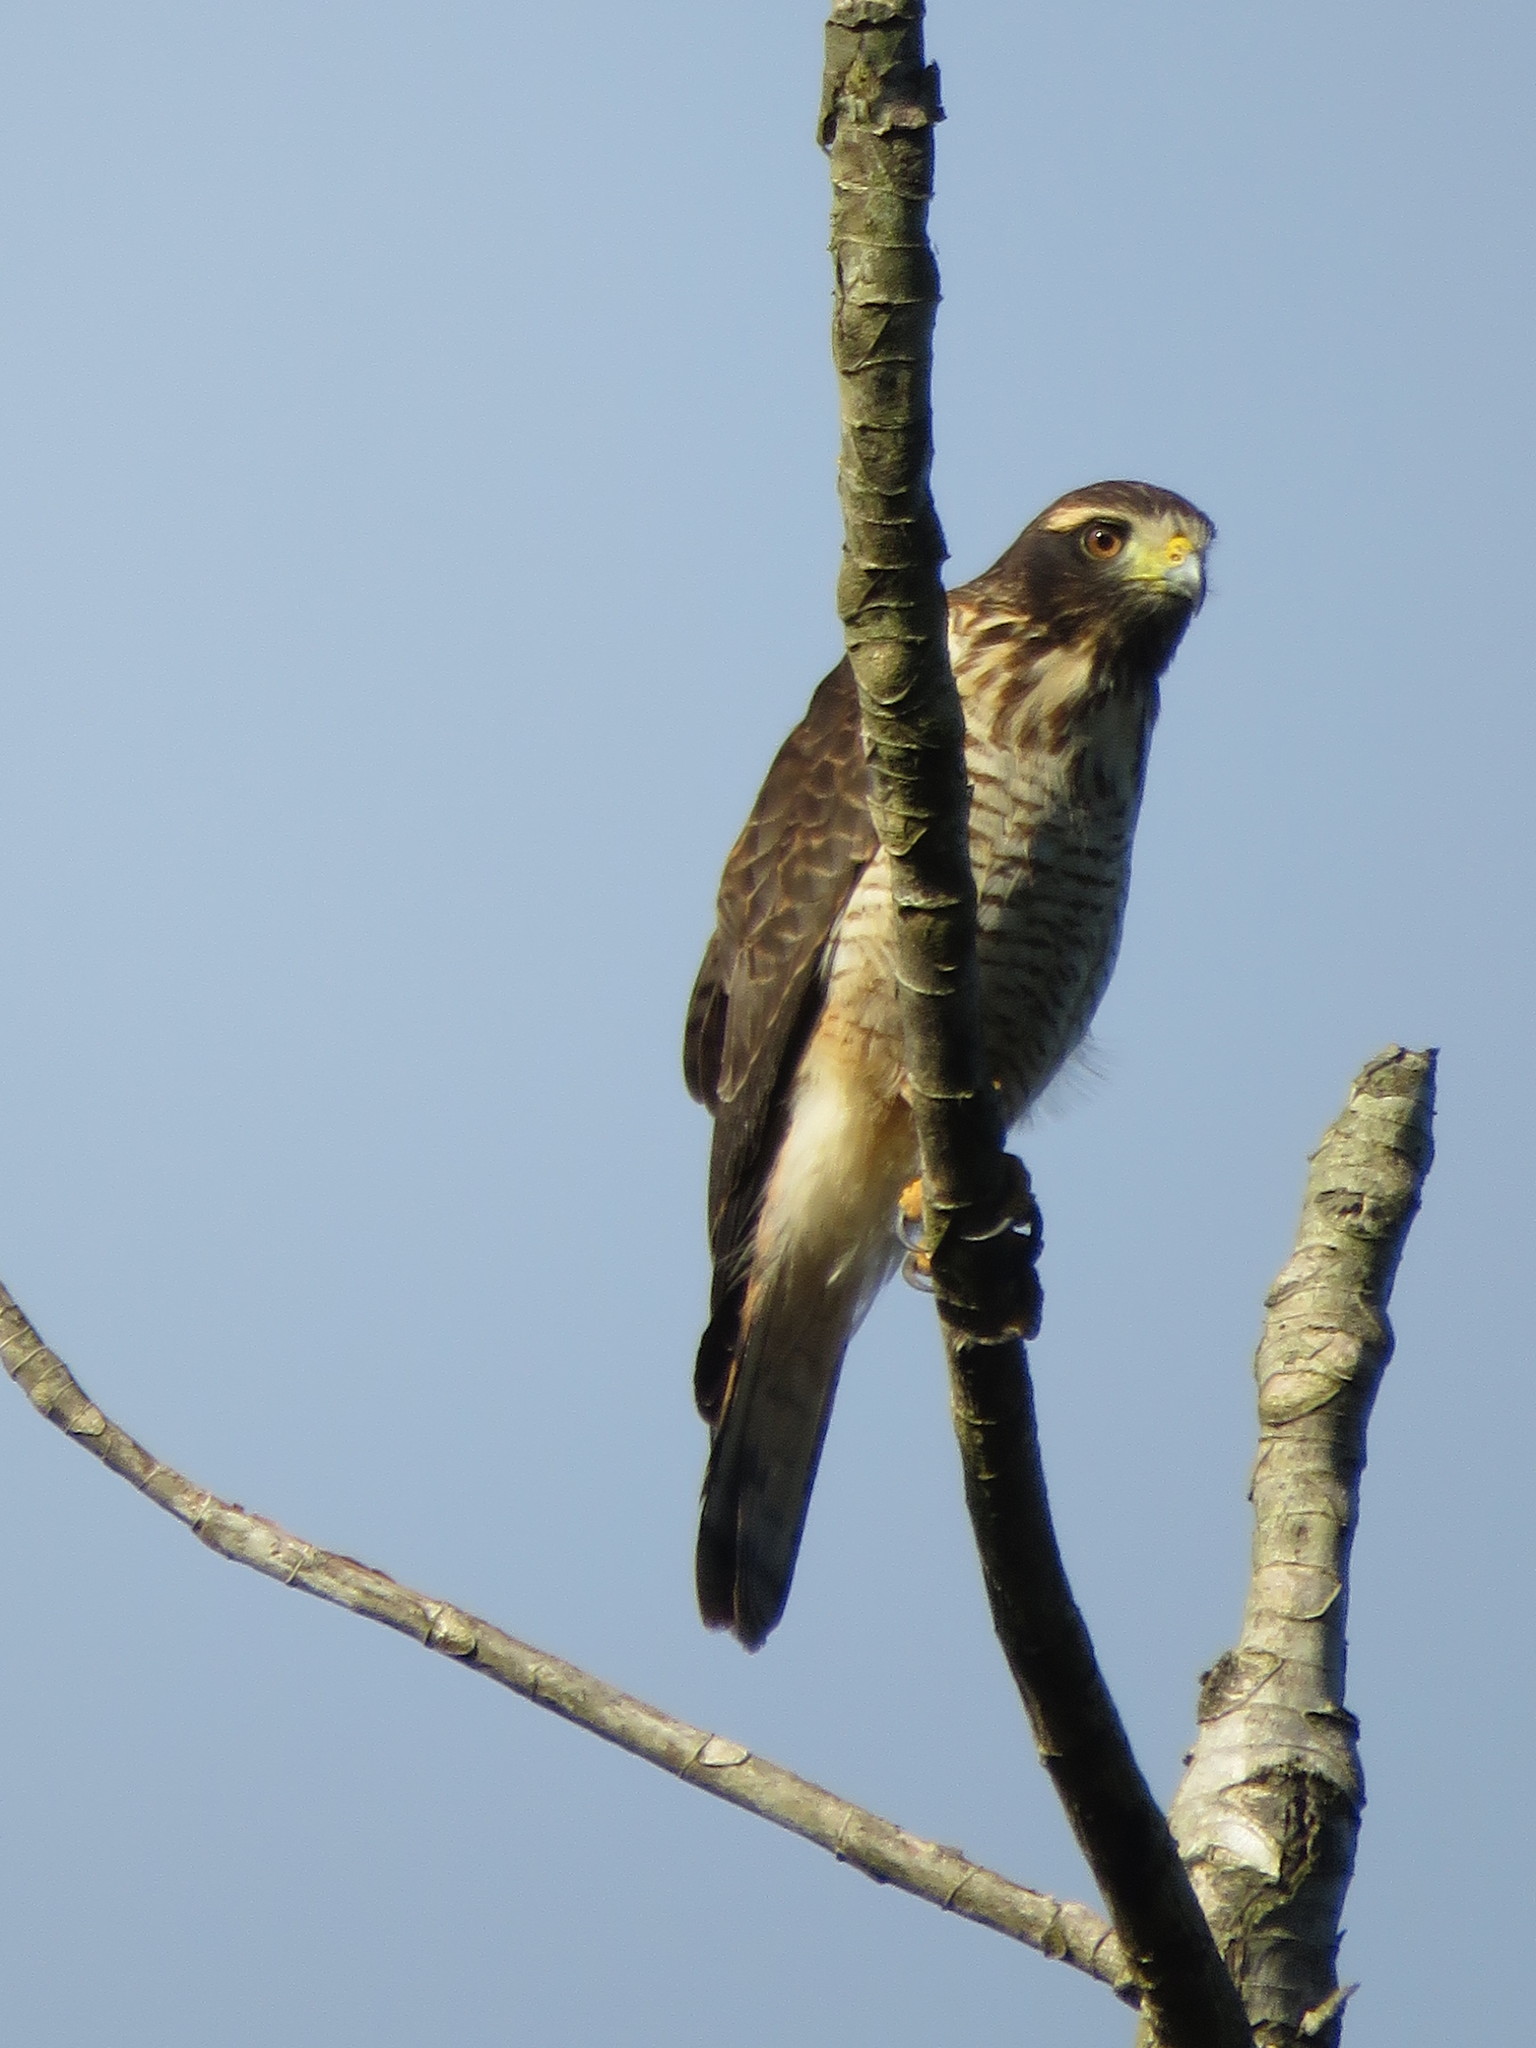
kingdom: Animalia
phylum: Chordata
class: Aves
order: Accipitriformes
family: Accipitridae
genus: Rupornis
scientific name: Rupornis magnirostris
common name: Roadside hawk
